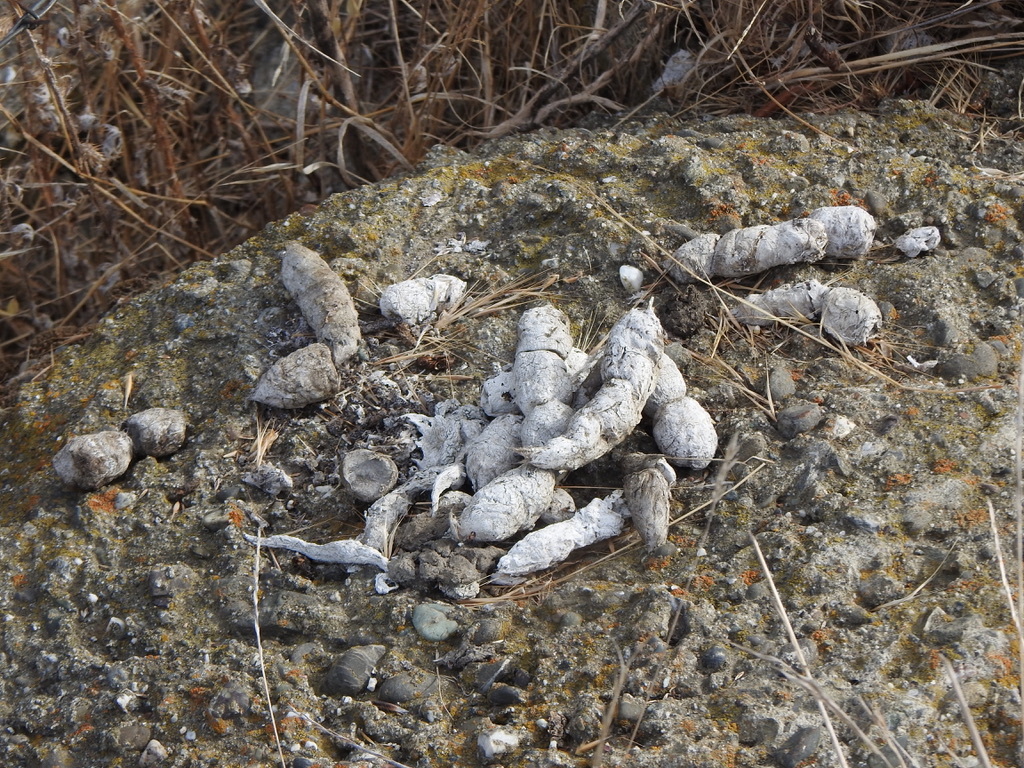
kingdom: Animalia
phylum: Chordata
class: Mammalia
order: Carnivora
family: Felidae
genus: Lynx
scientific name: Lynx rufus
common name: Bobcat
